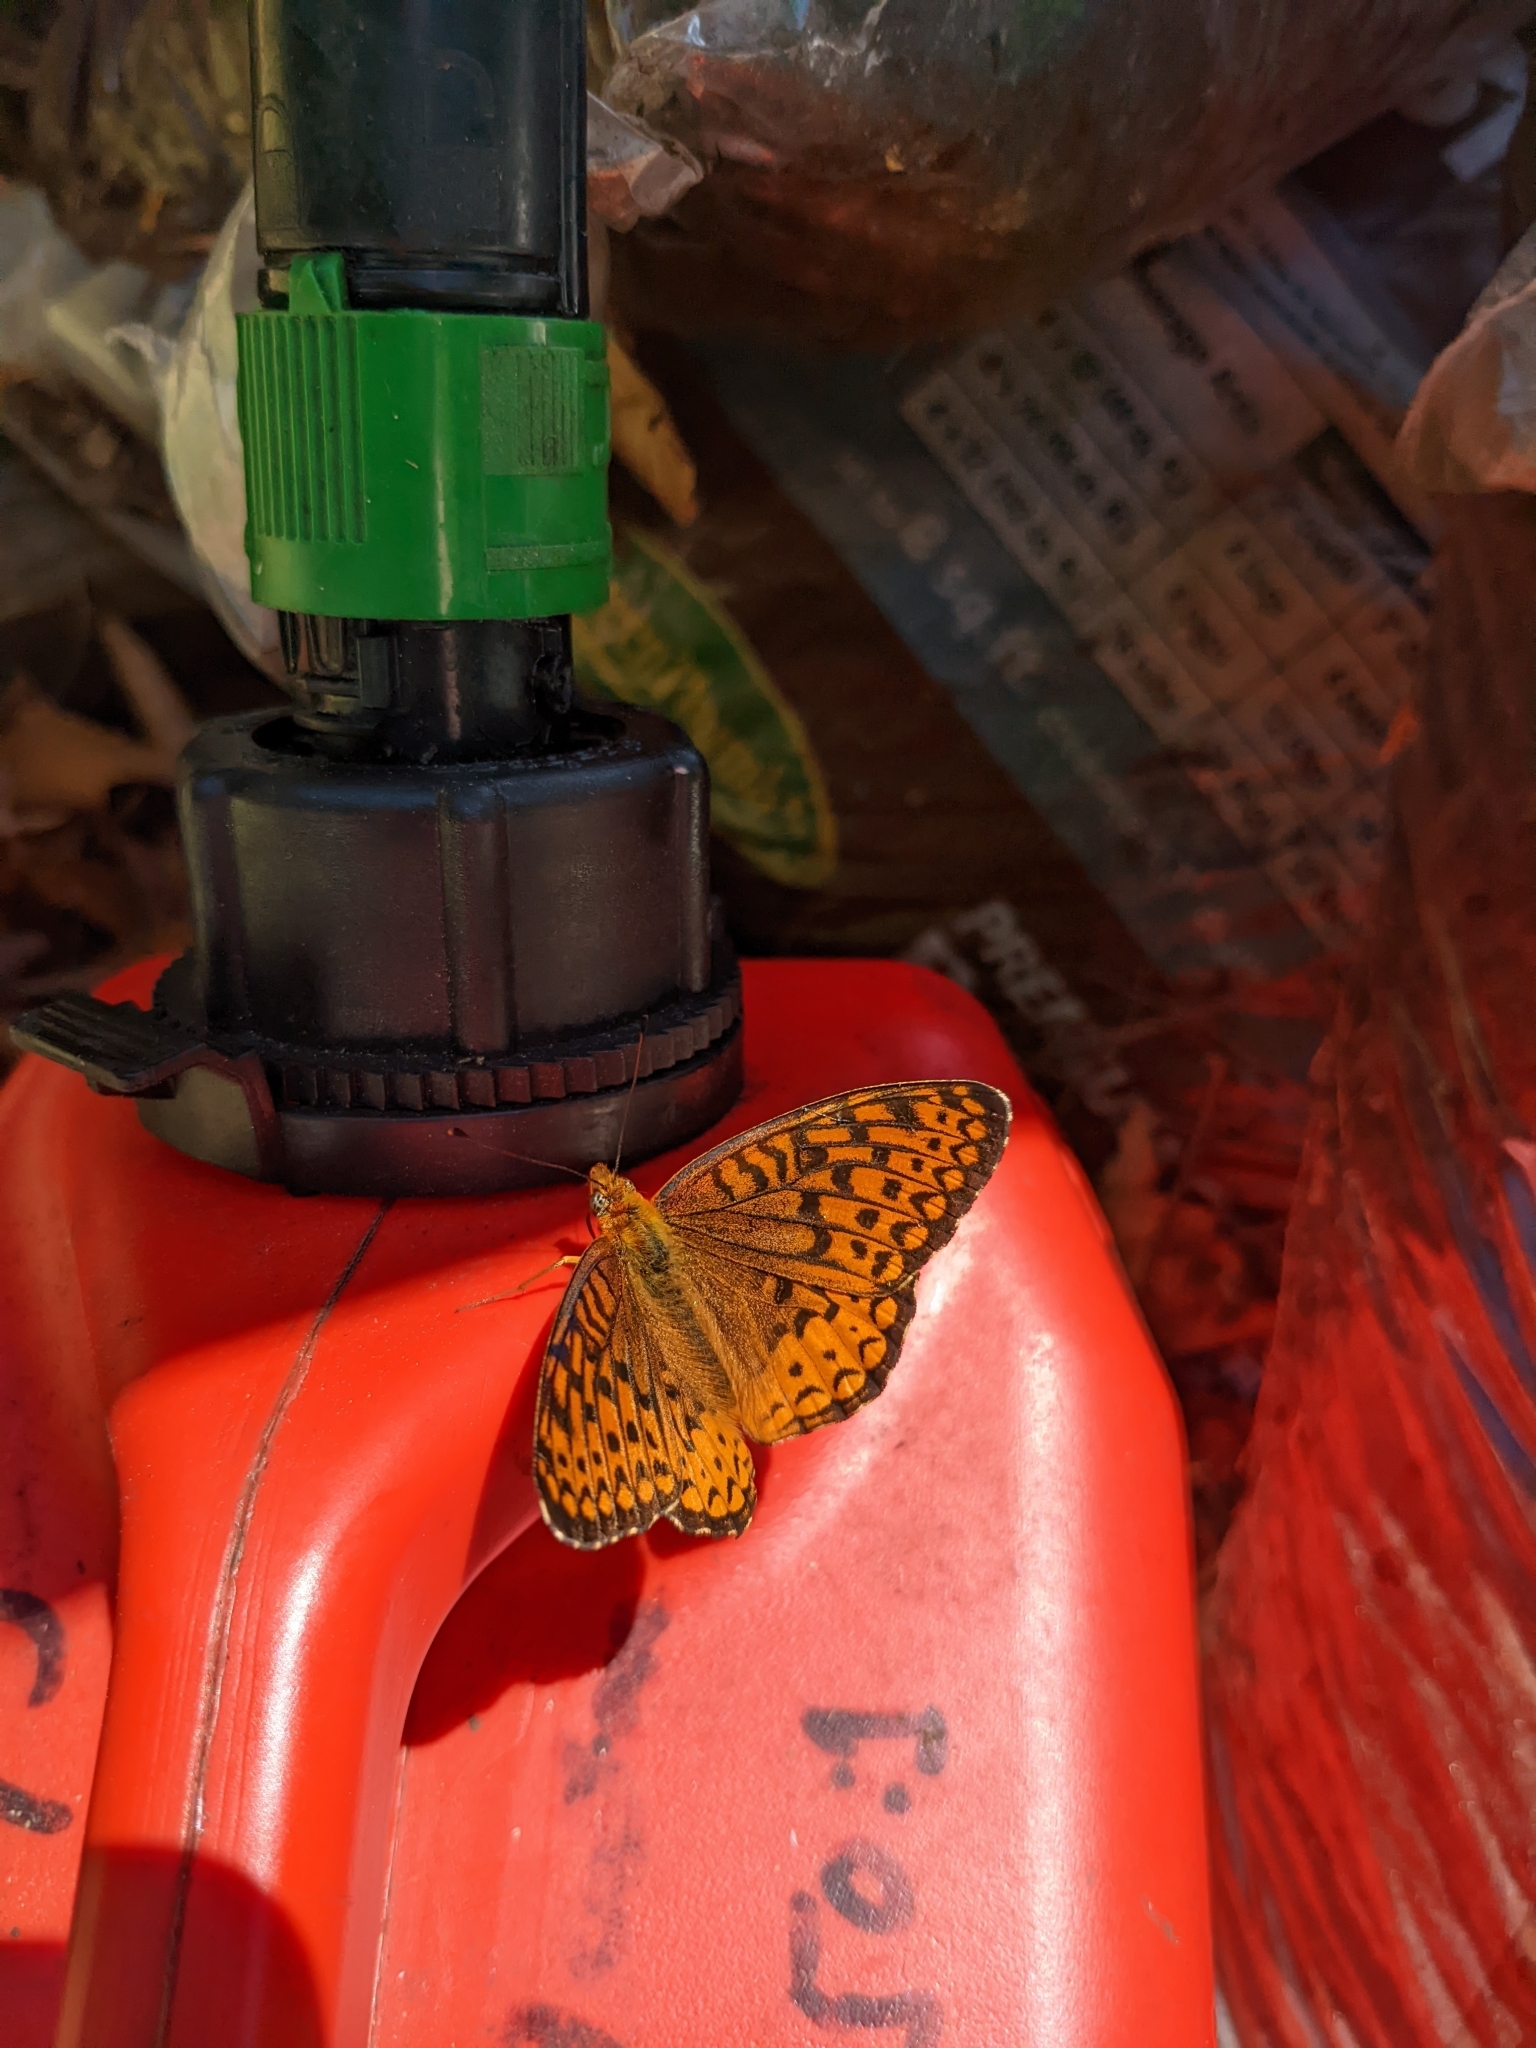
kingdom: Animalia
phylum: Arthropoda
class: Insecta
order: Lepidoptera
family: Nymphalidae
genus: Speyeria
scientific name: Speyeria atlantis
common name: Atlantis fritillary
